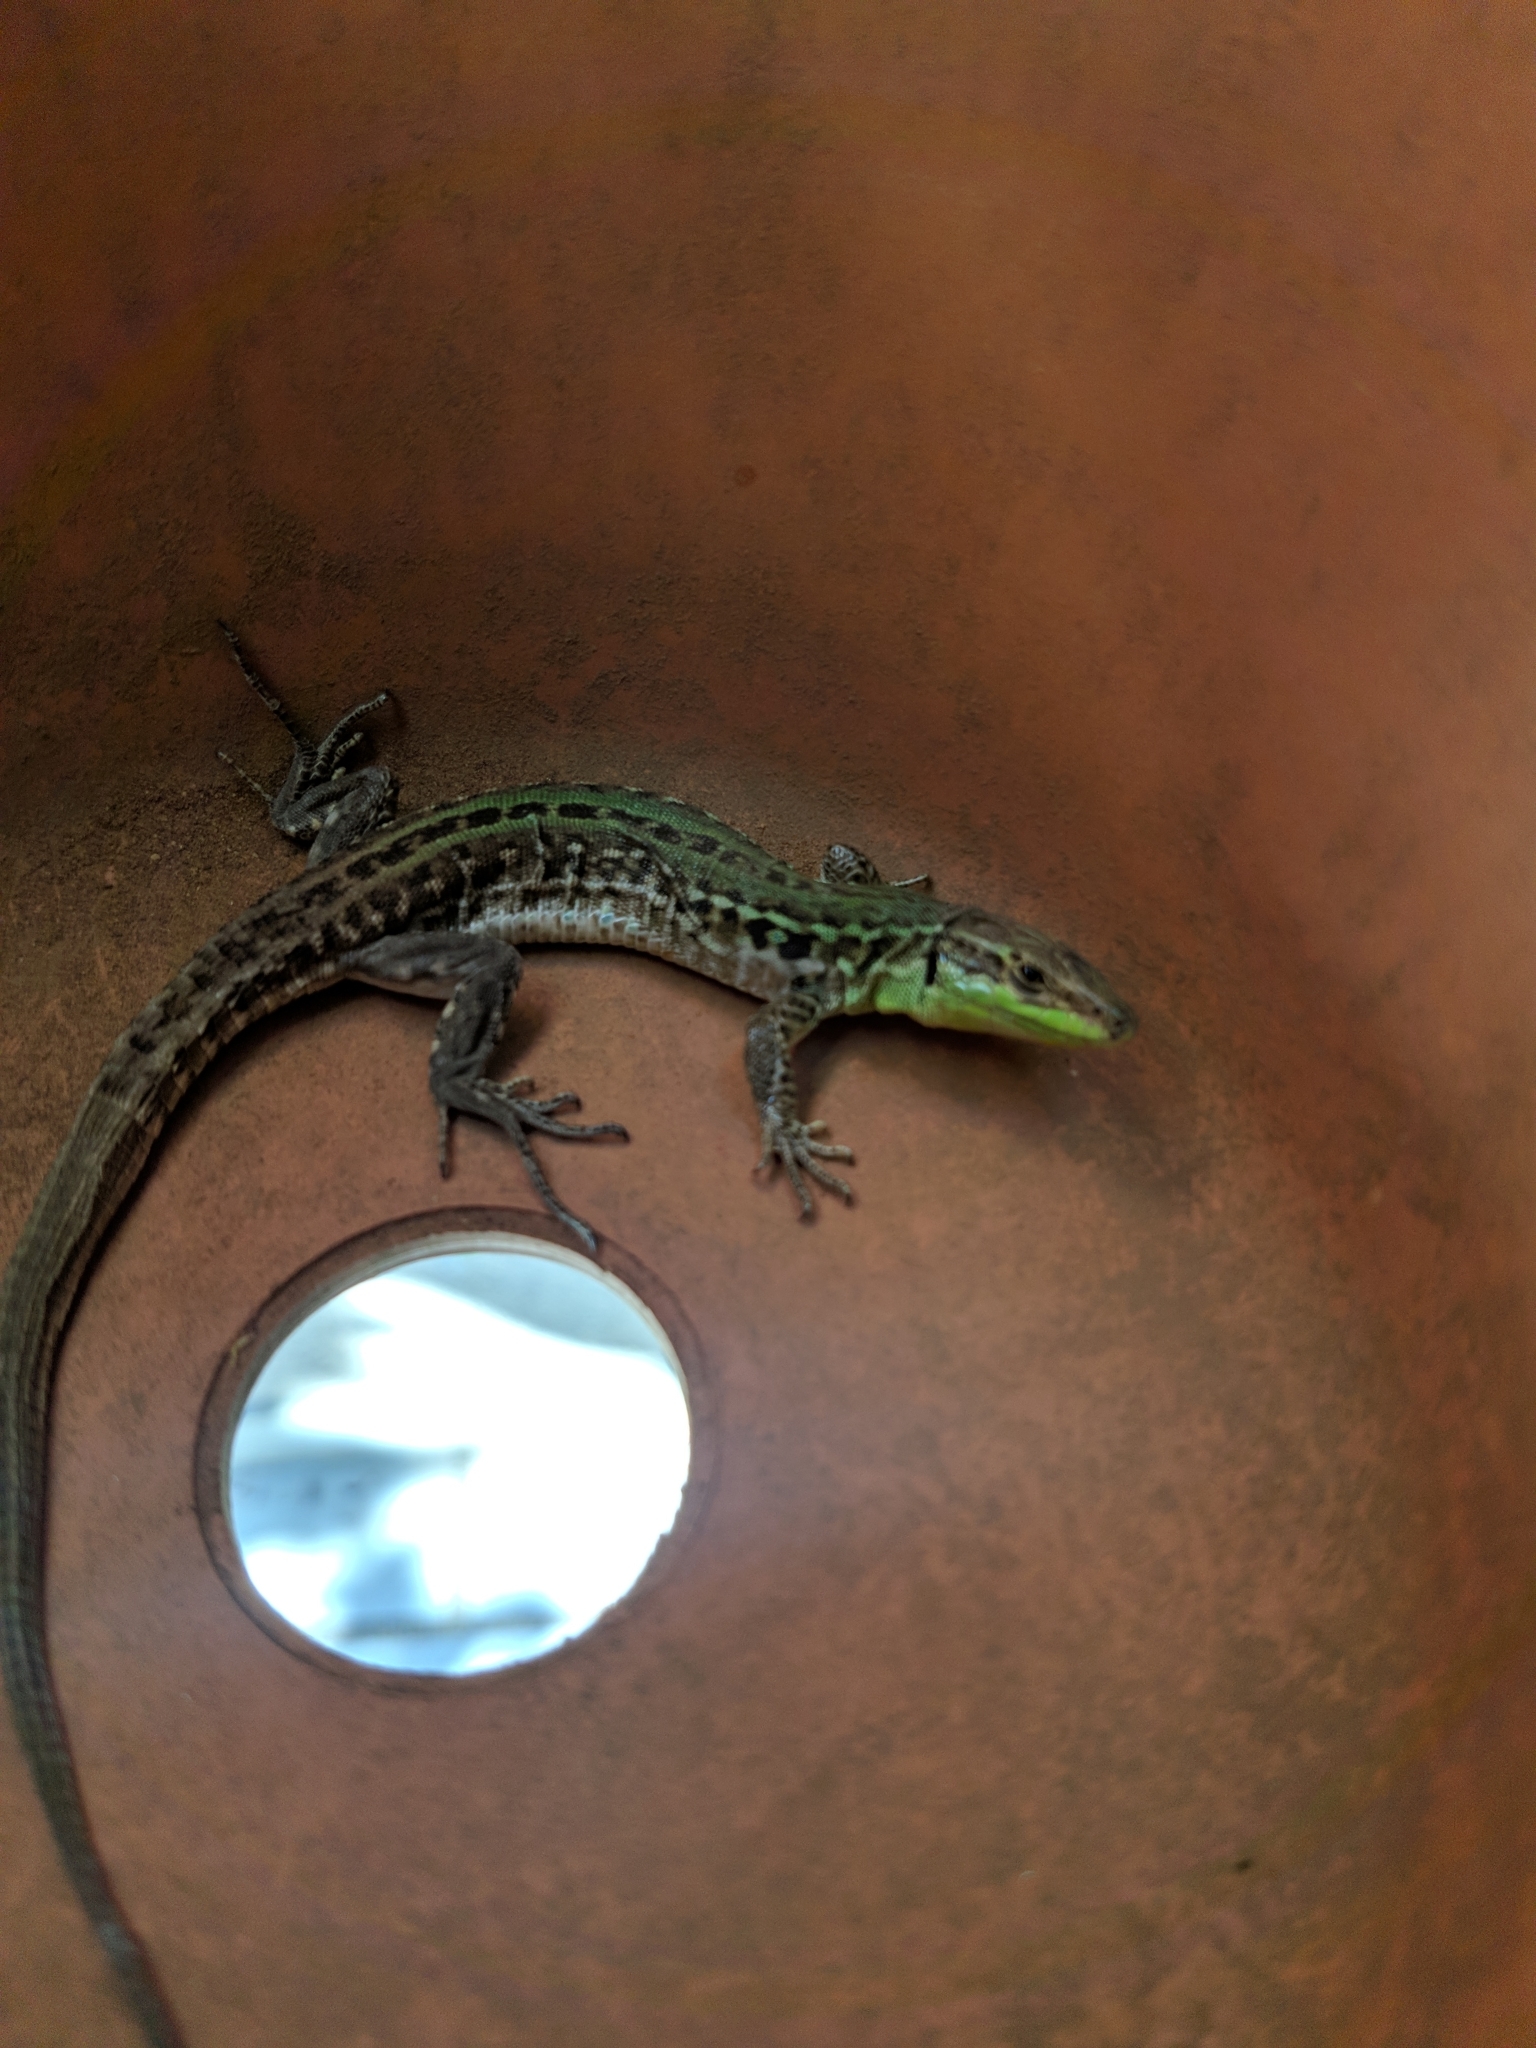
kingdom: Animalia
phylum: Chordata
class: Squamata
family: Lacertidae
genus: Podarcis
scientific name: Podarcis siculus
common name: Italian wall lizard
